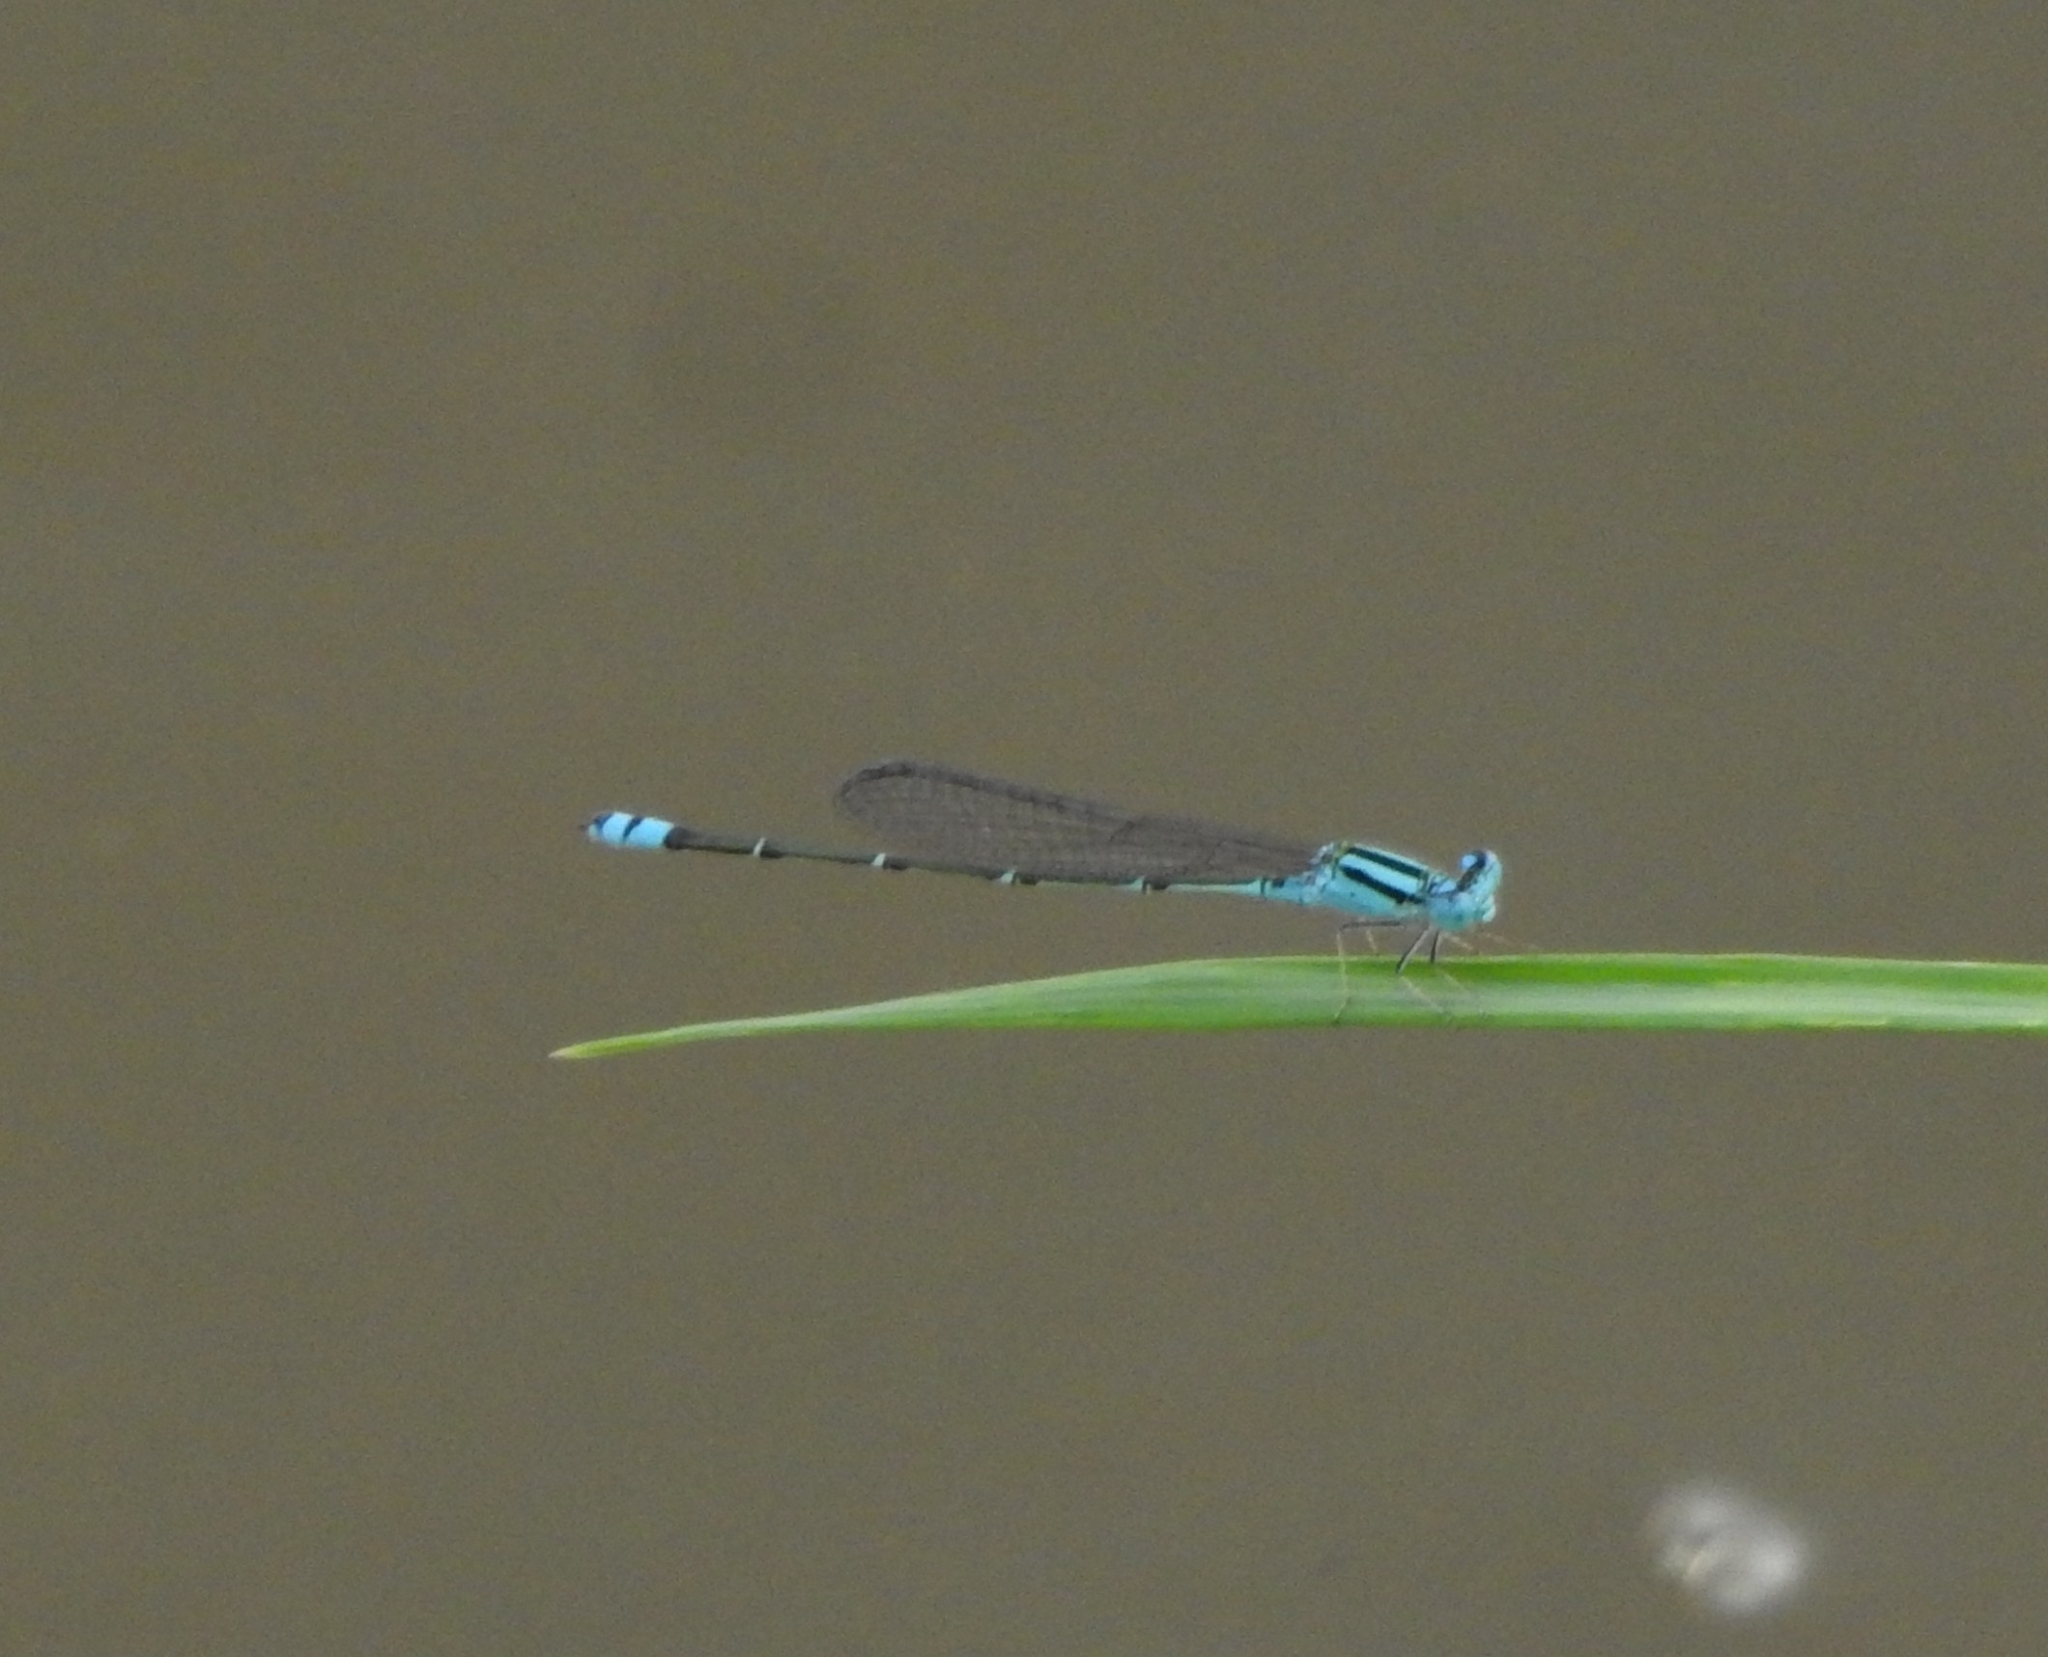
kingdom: Animalia
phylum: Arthropoda
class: Insecta
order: Odonata
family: Coenagrionidae
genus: Pseudagrion
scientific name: Pseudagrion microcephalum
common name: Blue riverdamsel
